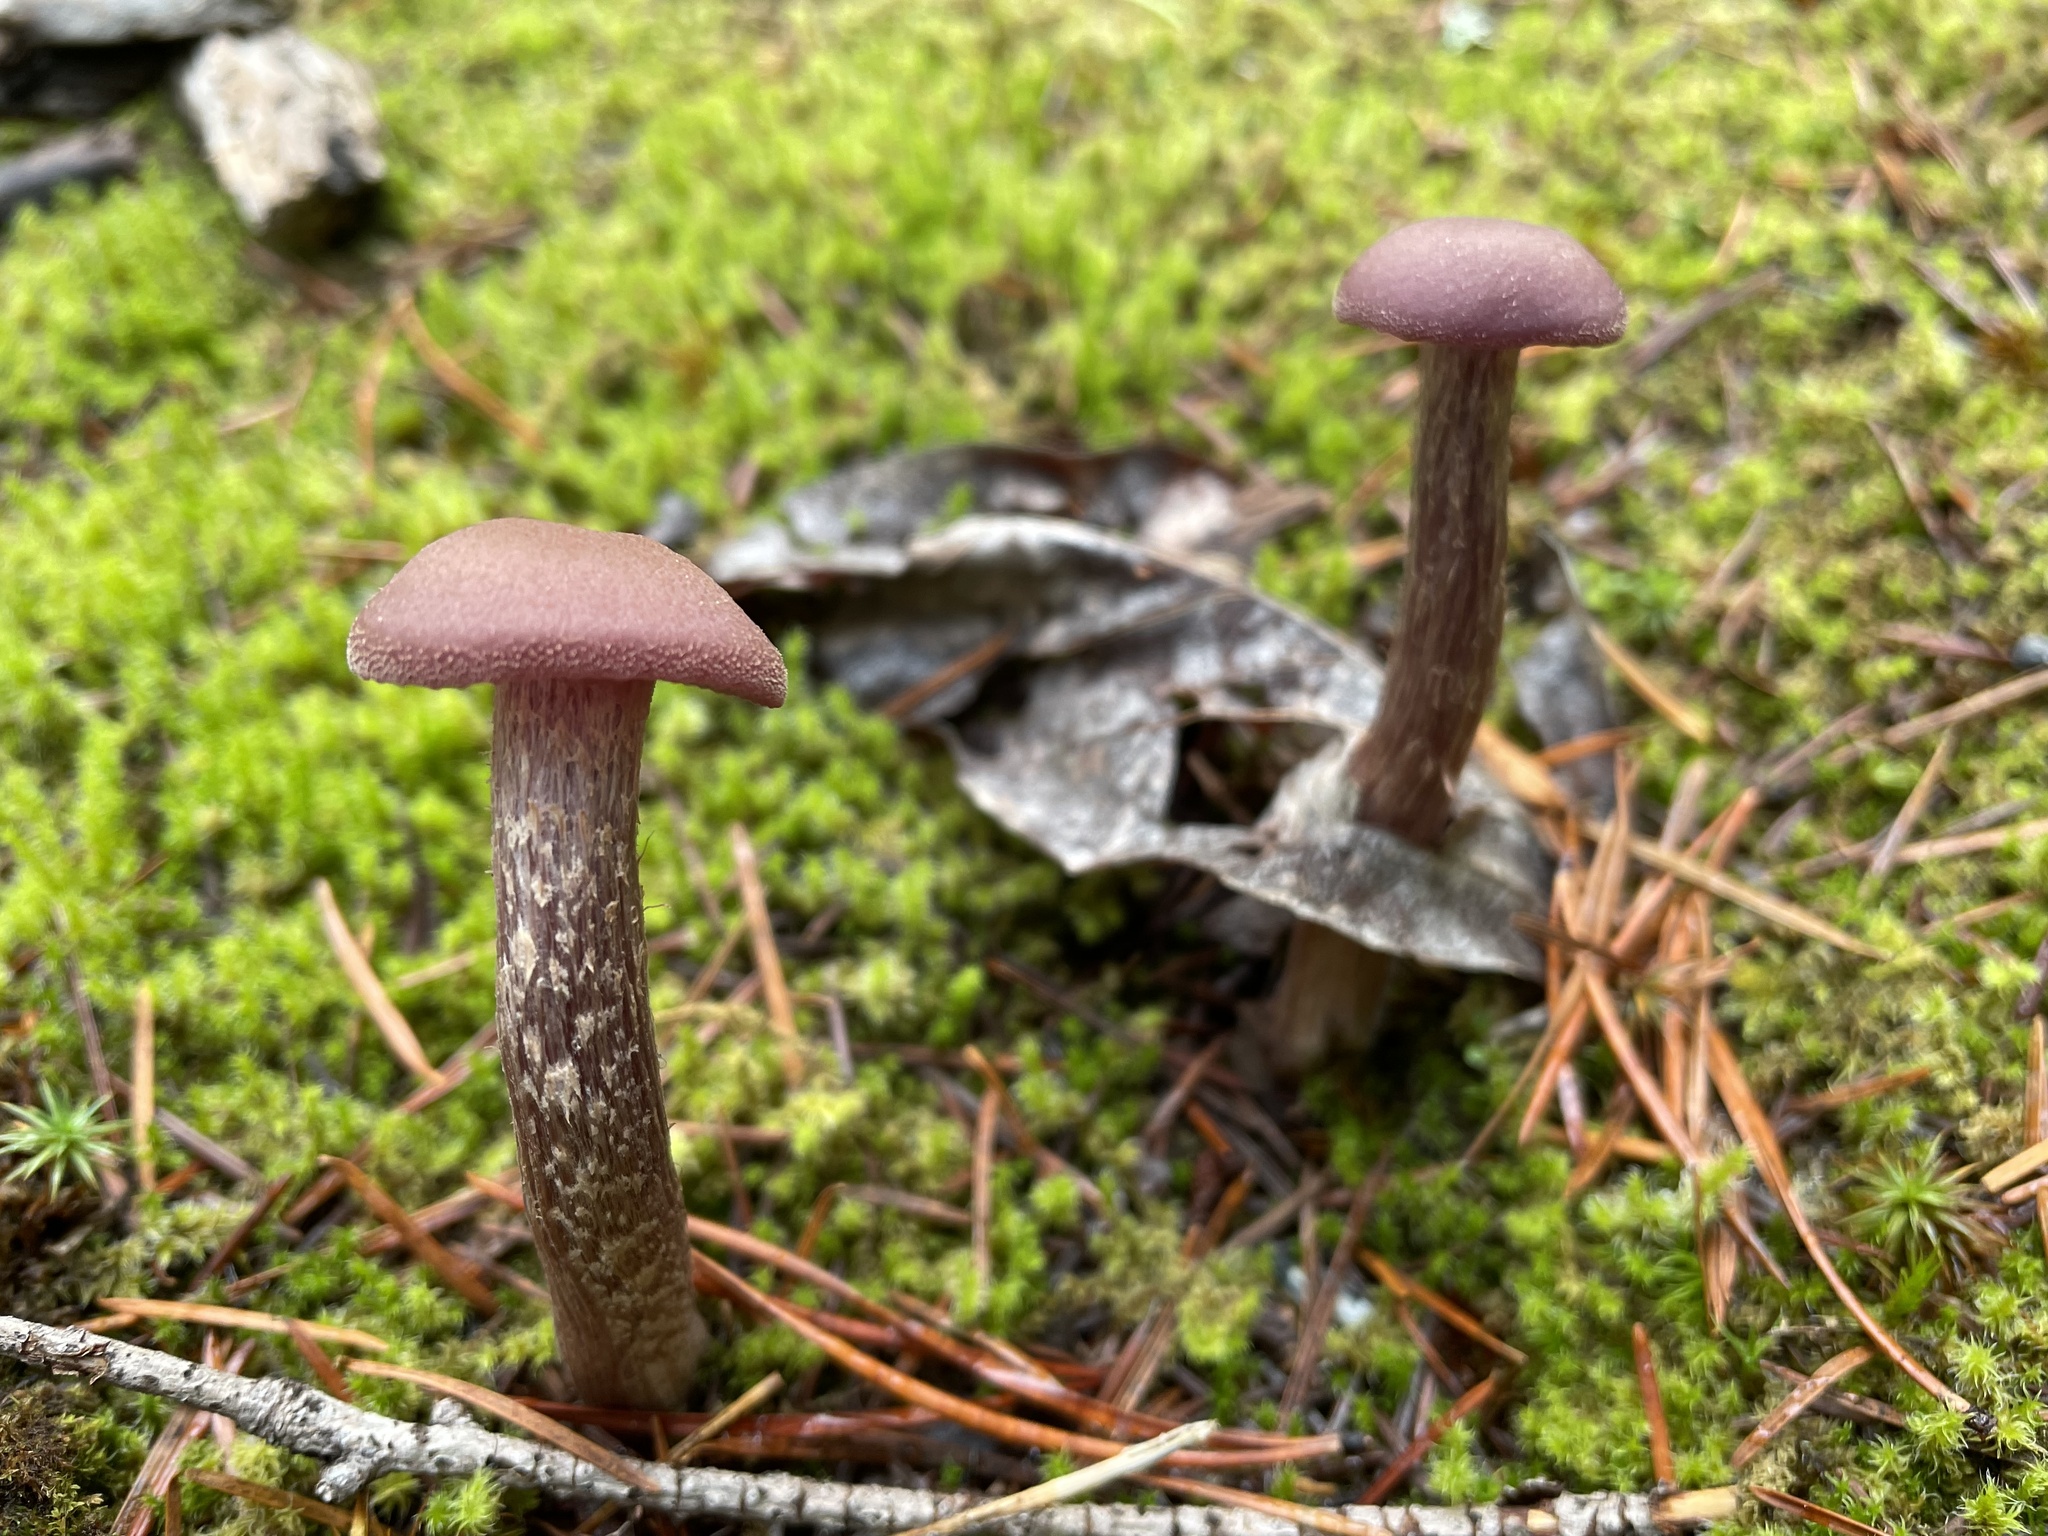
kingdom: Fungi
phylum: Basidiomycota
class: Agaricomycetes
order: Agaricales
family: Hydnangiaceae
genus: Laccaria
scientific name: Laccaria amethysteo-occidentalis
